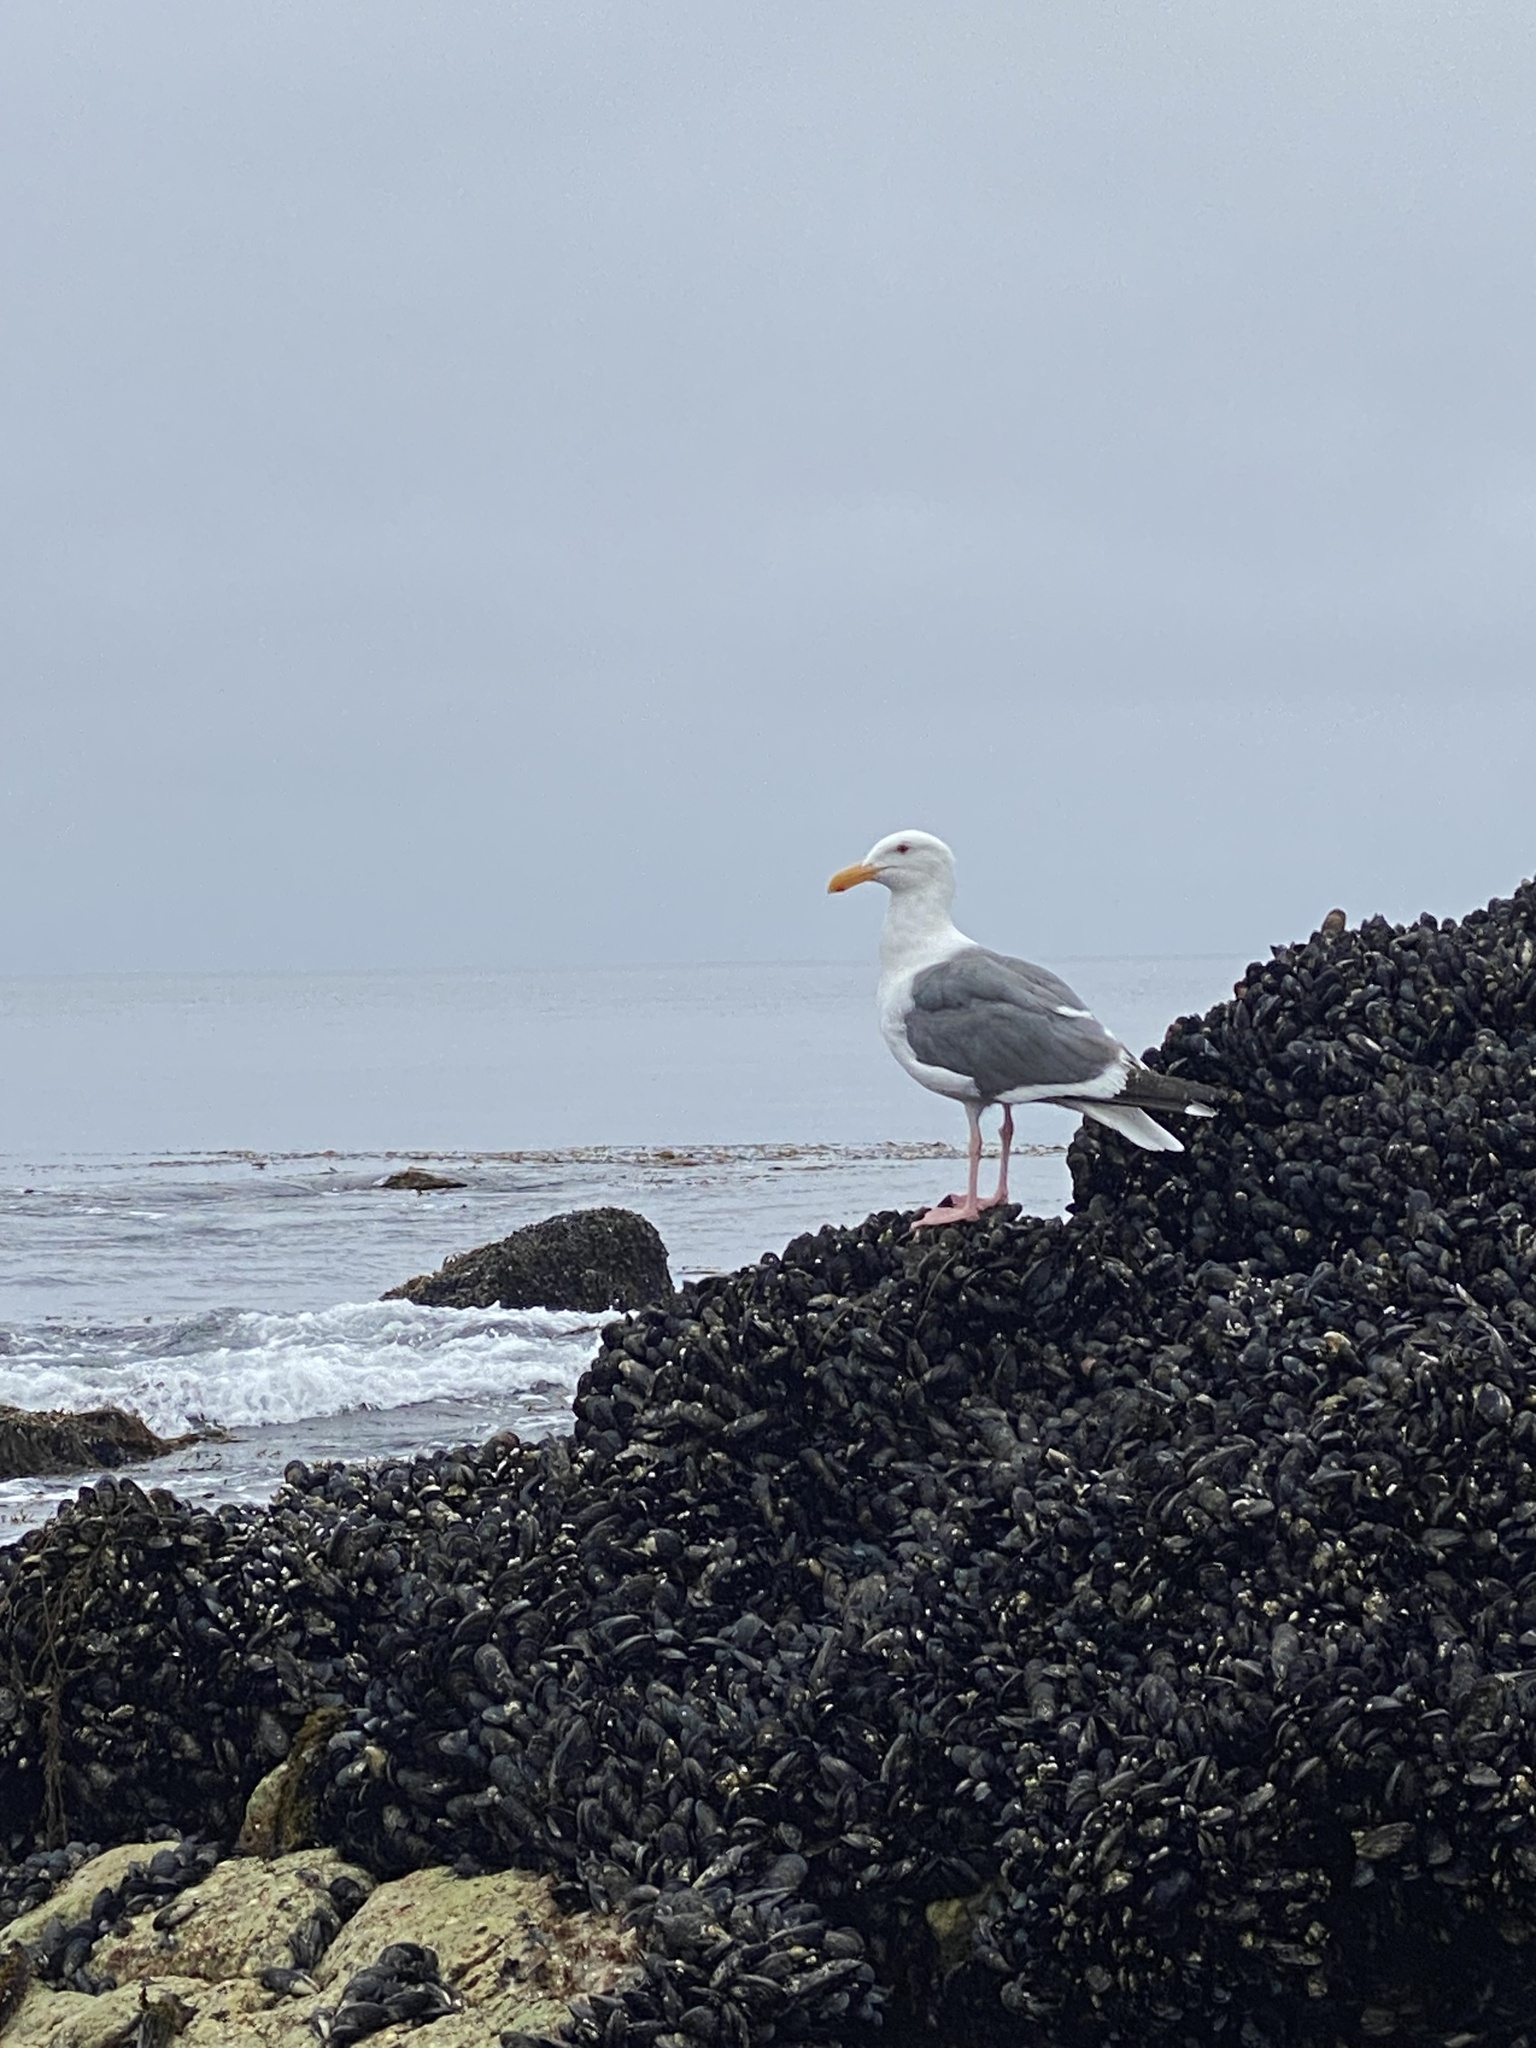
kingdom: Animalia
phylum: Chordata
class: Aves
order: Charadriiformes
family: Laridae
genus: Larus
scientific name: Larus occidentalis
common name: Western gull
